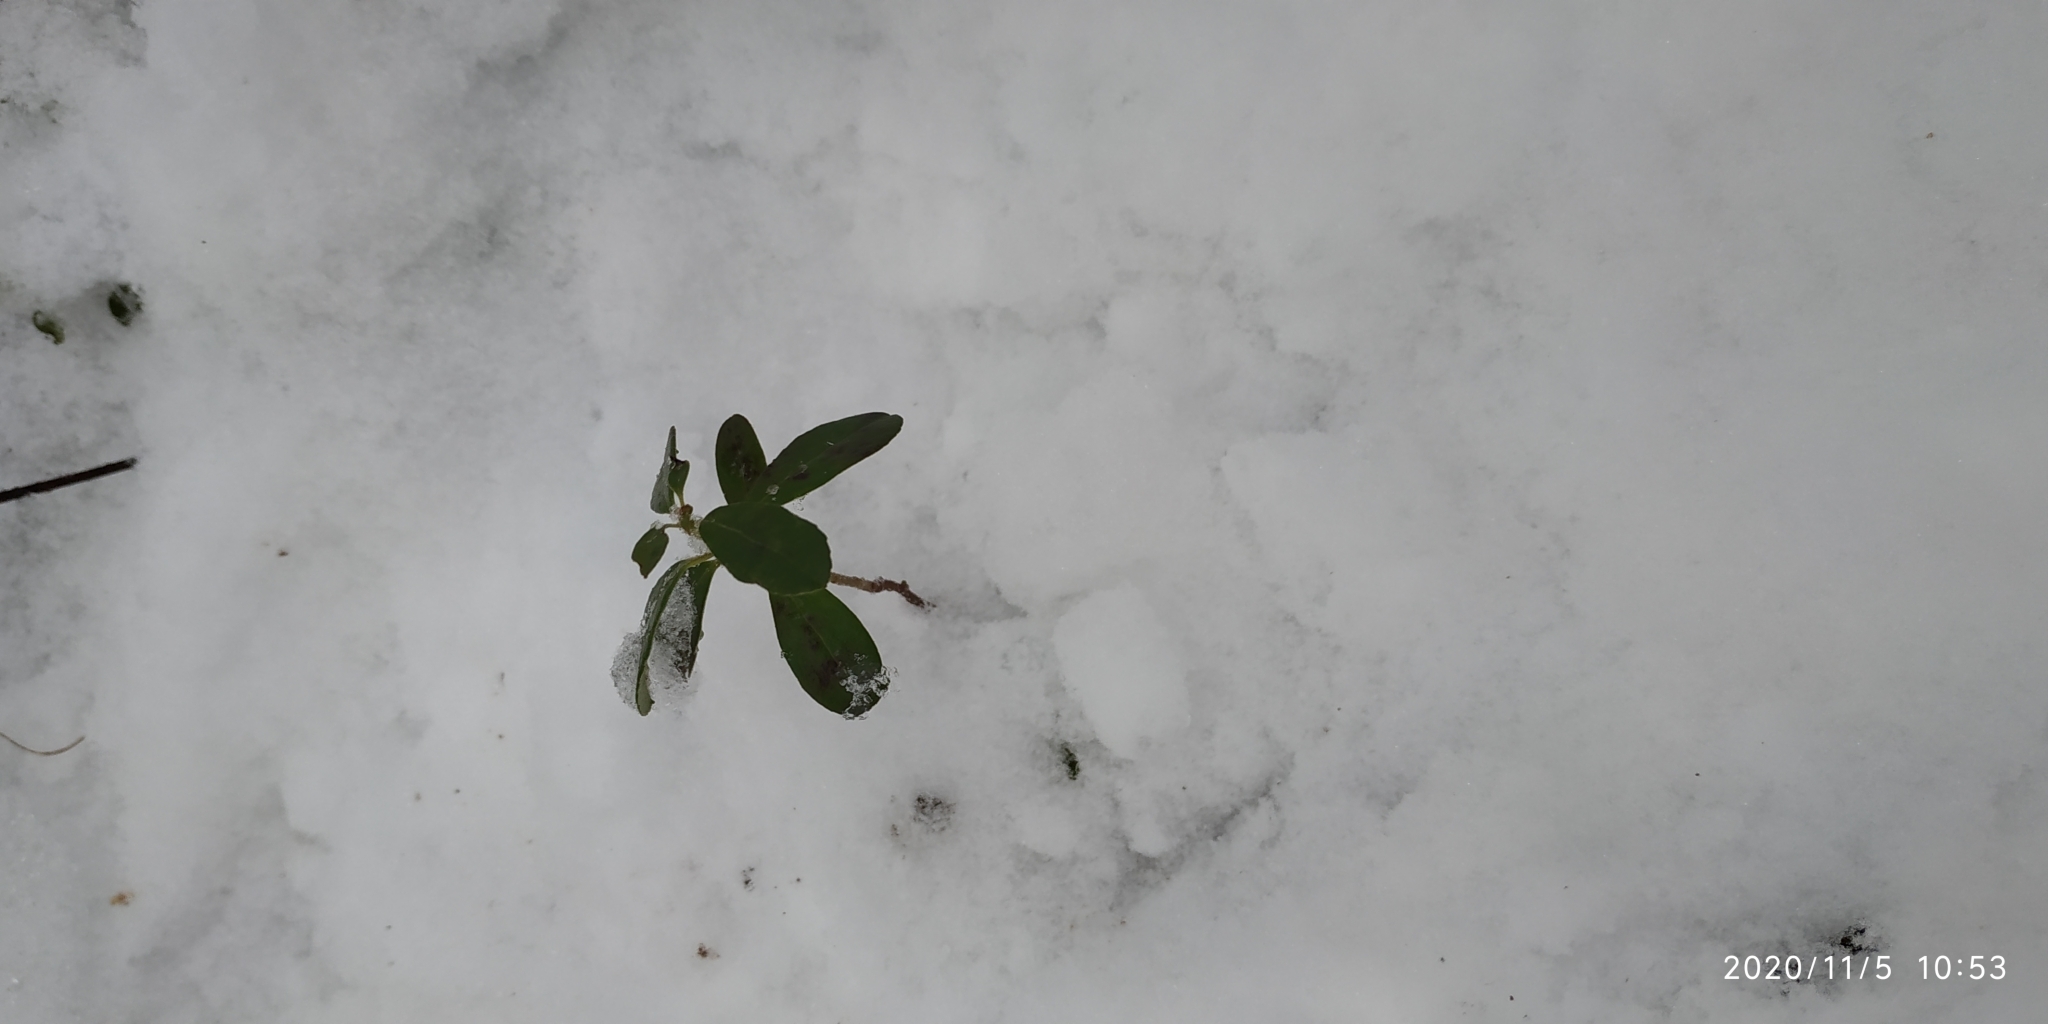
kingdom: Plantae
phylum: Tracheophyta
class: Magnoliopsida
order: Ericales
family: Ericaceae
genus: Vaccinium
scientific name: Vaccinium vitis-idaea
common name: Cowberry
